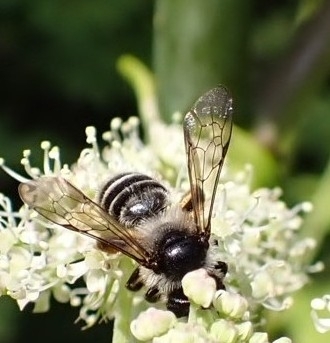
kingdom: Animalia
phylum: Arthropoda
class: Insecta
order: Hymenoptera
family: Andrenidae
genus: Andrena
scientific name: Andrena denticulata
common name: Grey-banded mining bee
